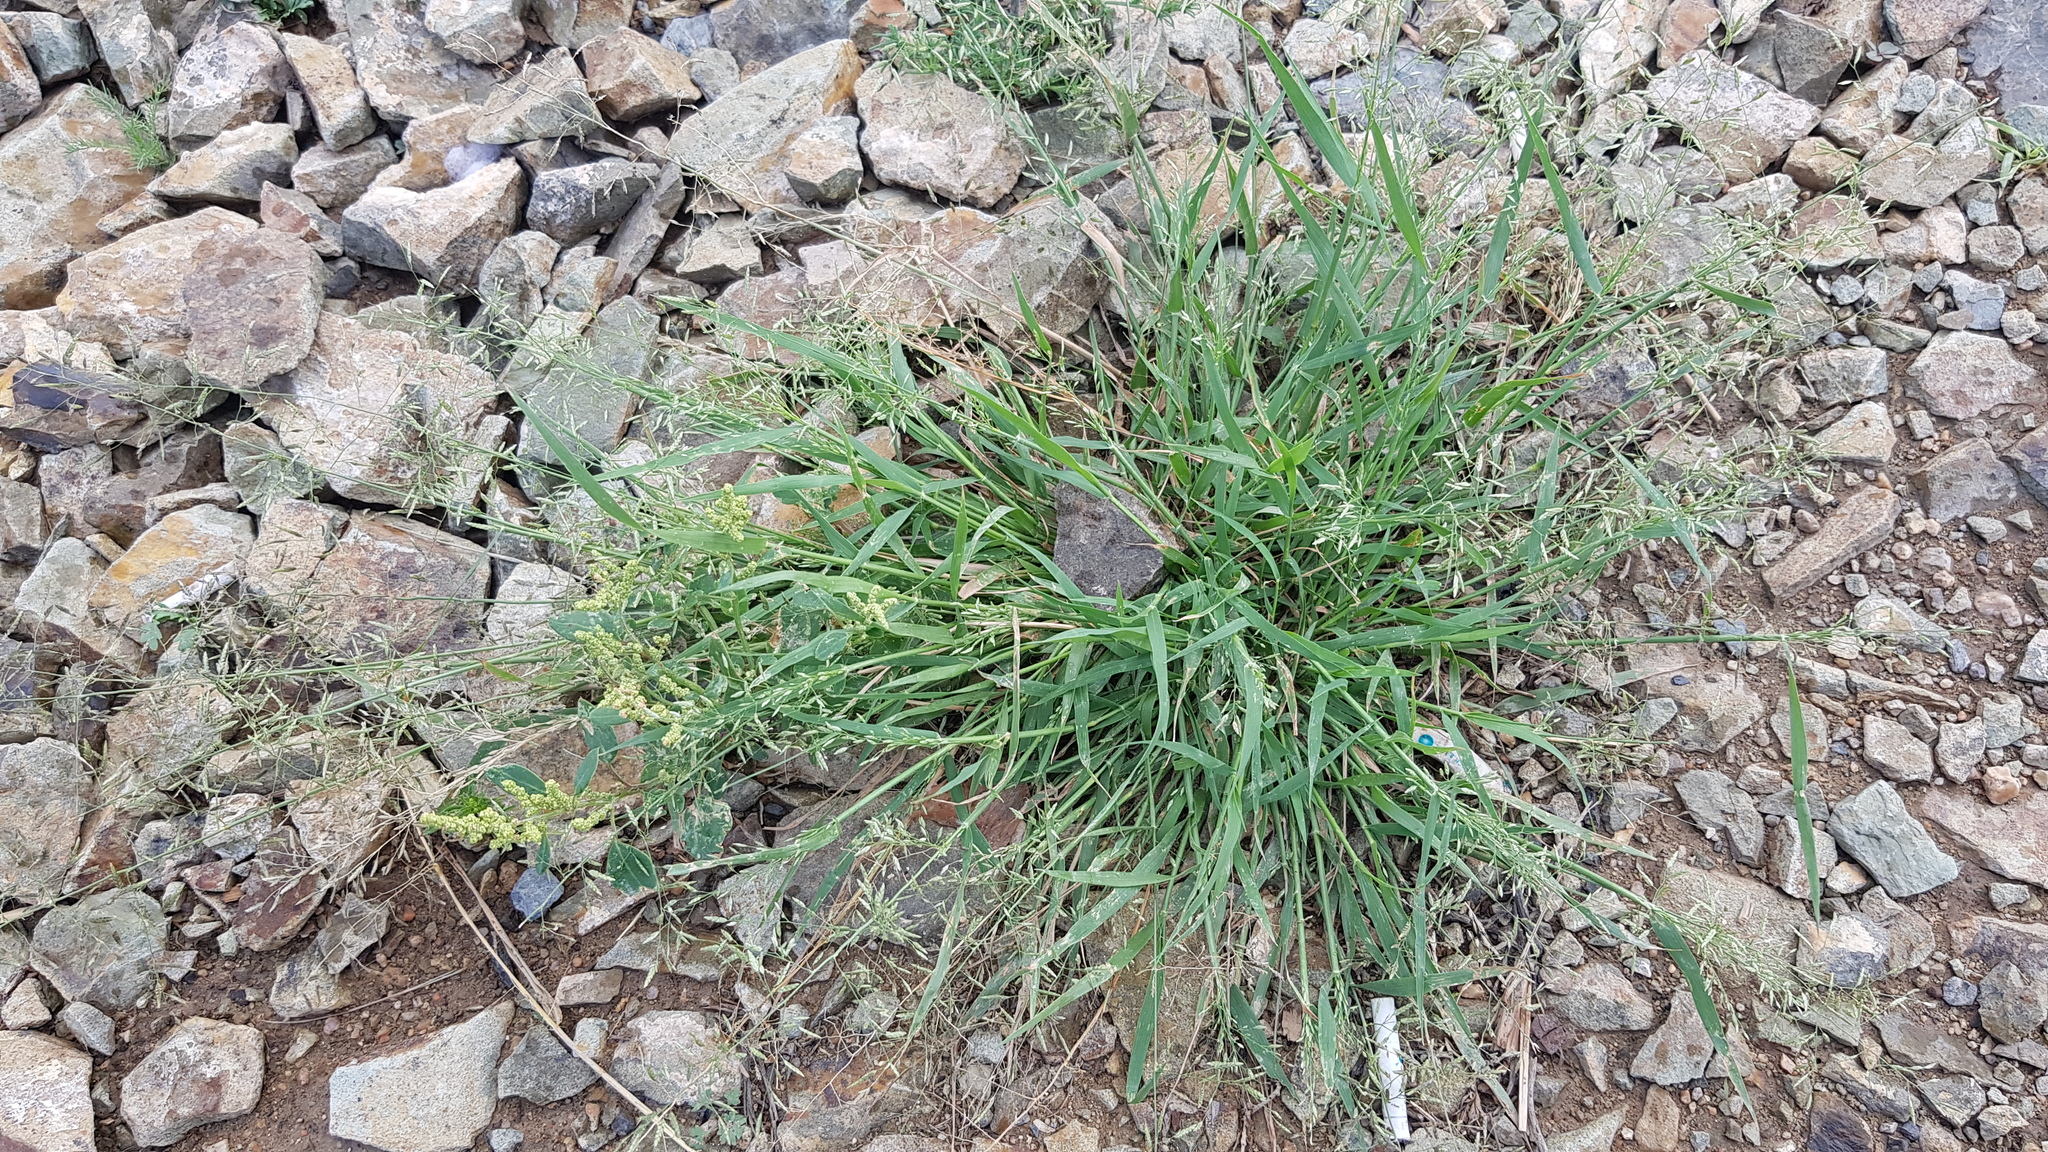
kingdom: Plantae
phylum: Tracheophyta
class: Liliopsida
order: Poales
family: Poaceae
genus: Eragrostis
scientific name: Eragrostis minor
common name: Small love-grass
